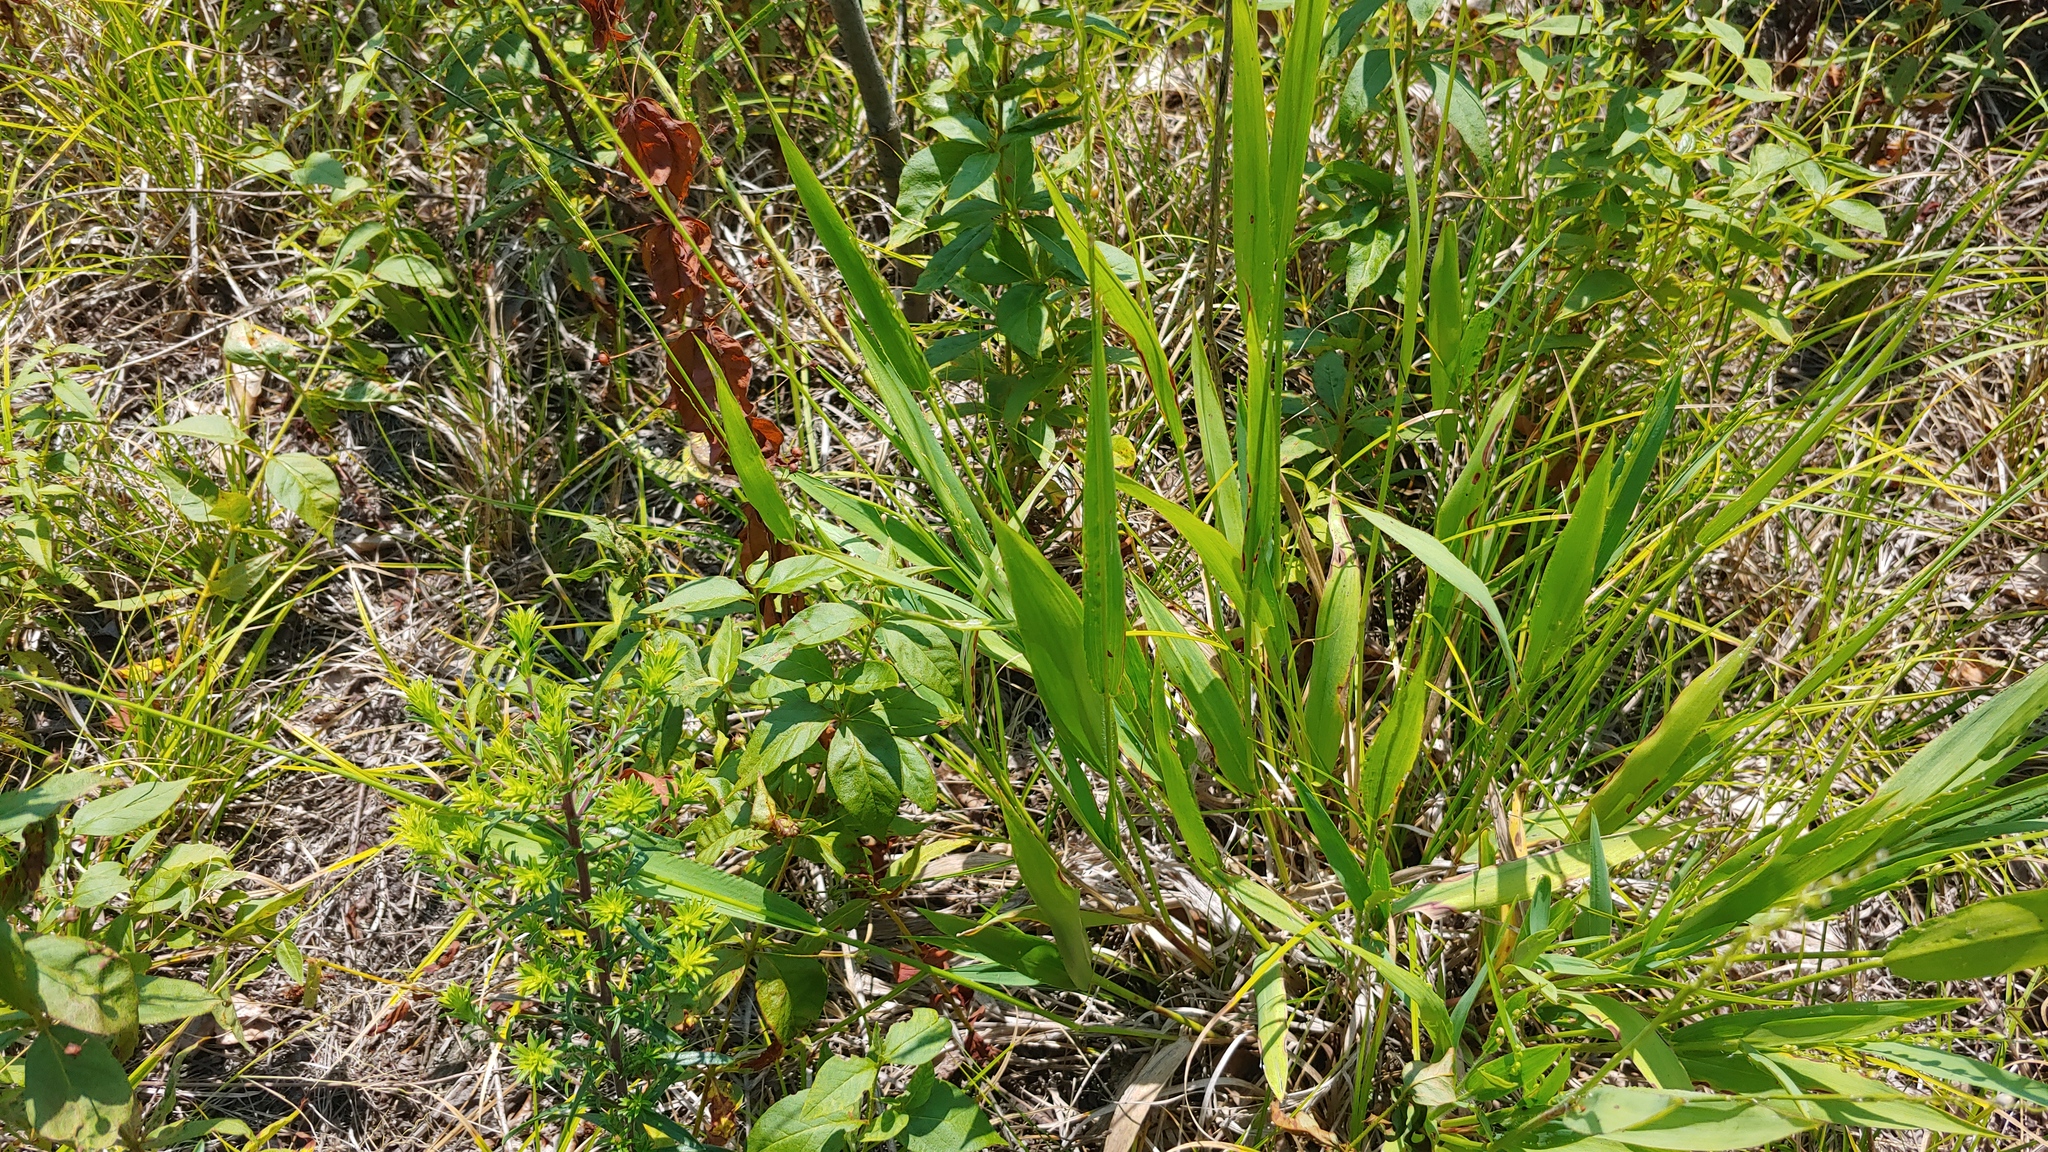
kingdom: Plantae
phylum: Tracheophyta
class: Liliopsida
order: Poales
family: Poaceae
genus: Dichanthelium
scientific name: Dichanthelium xanthophysum
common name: Pale panicgrass
